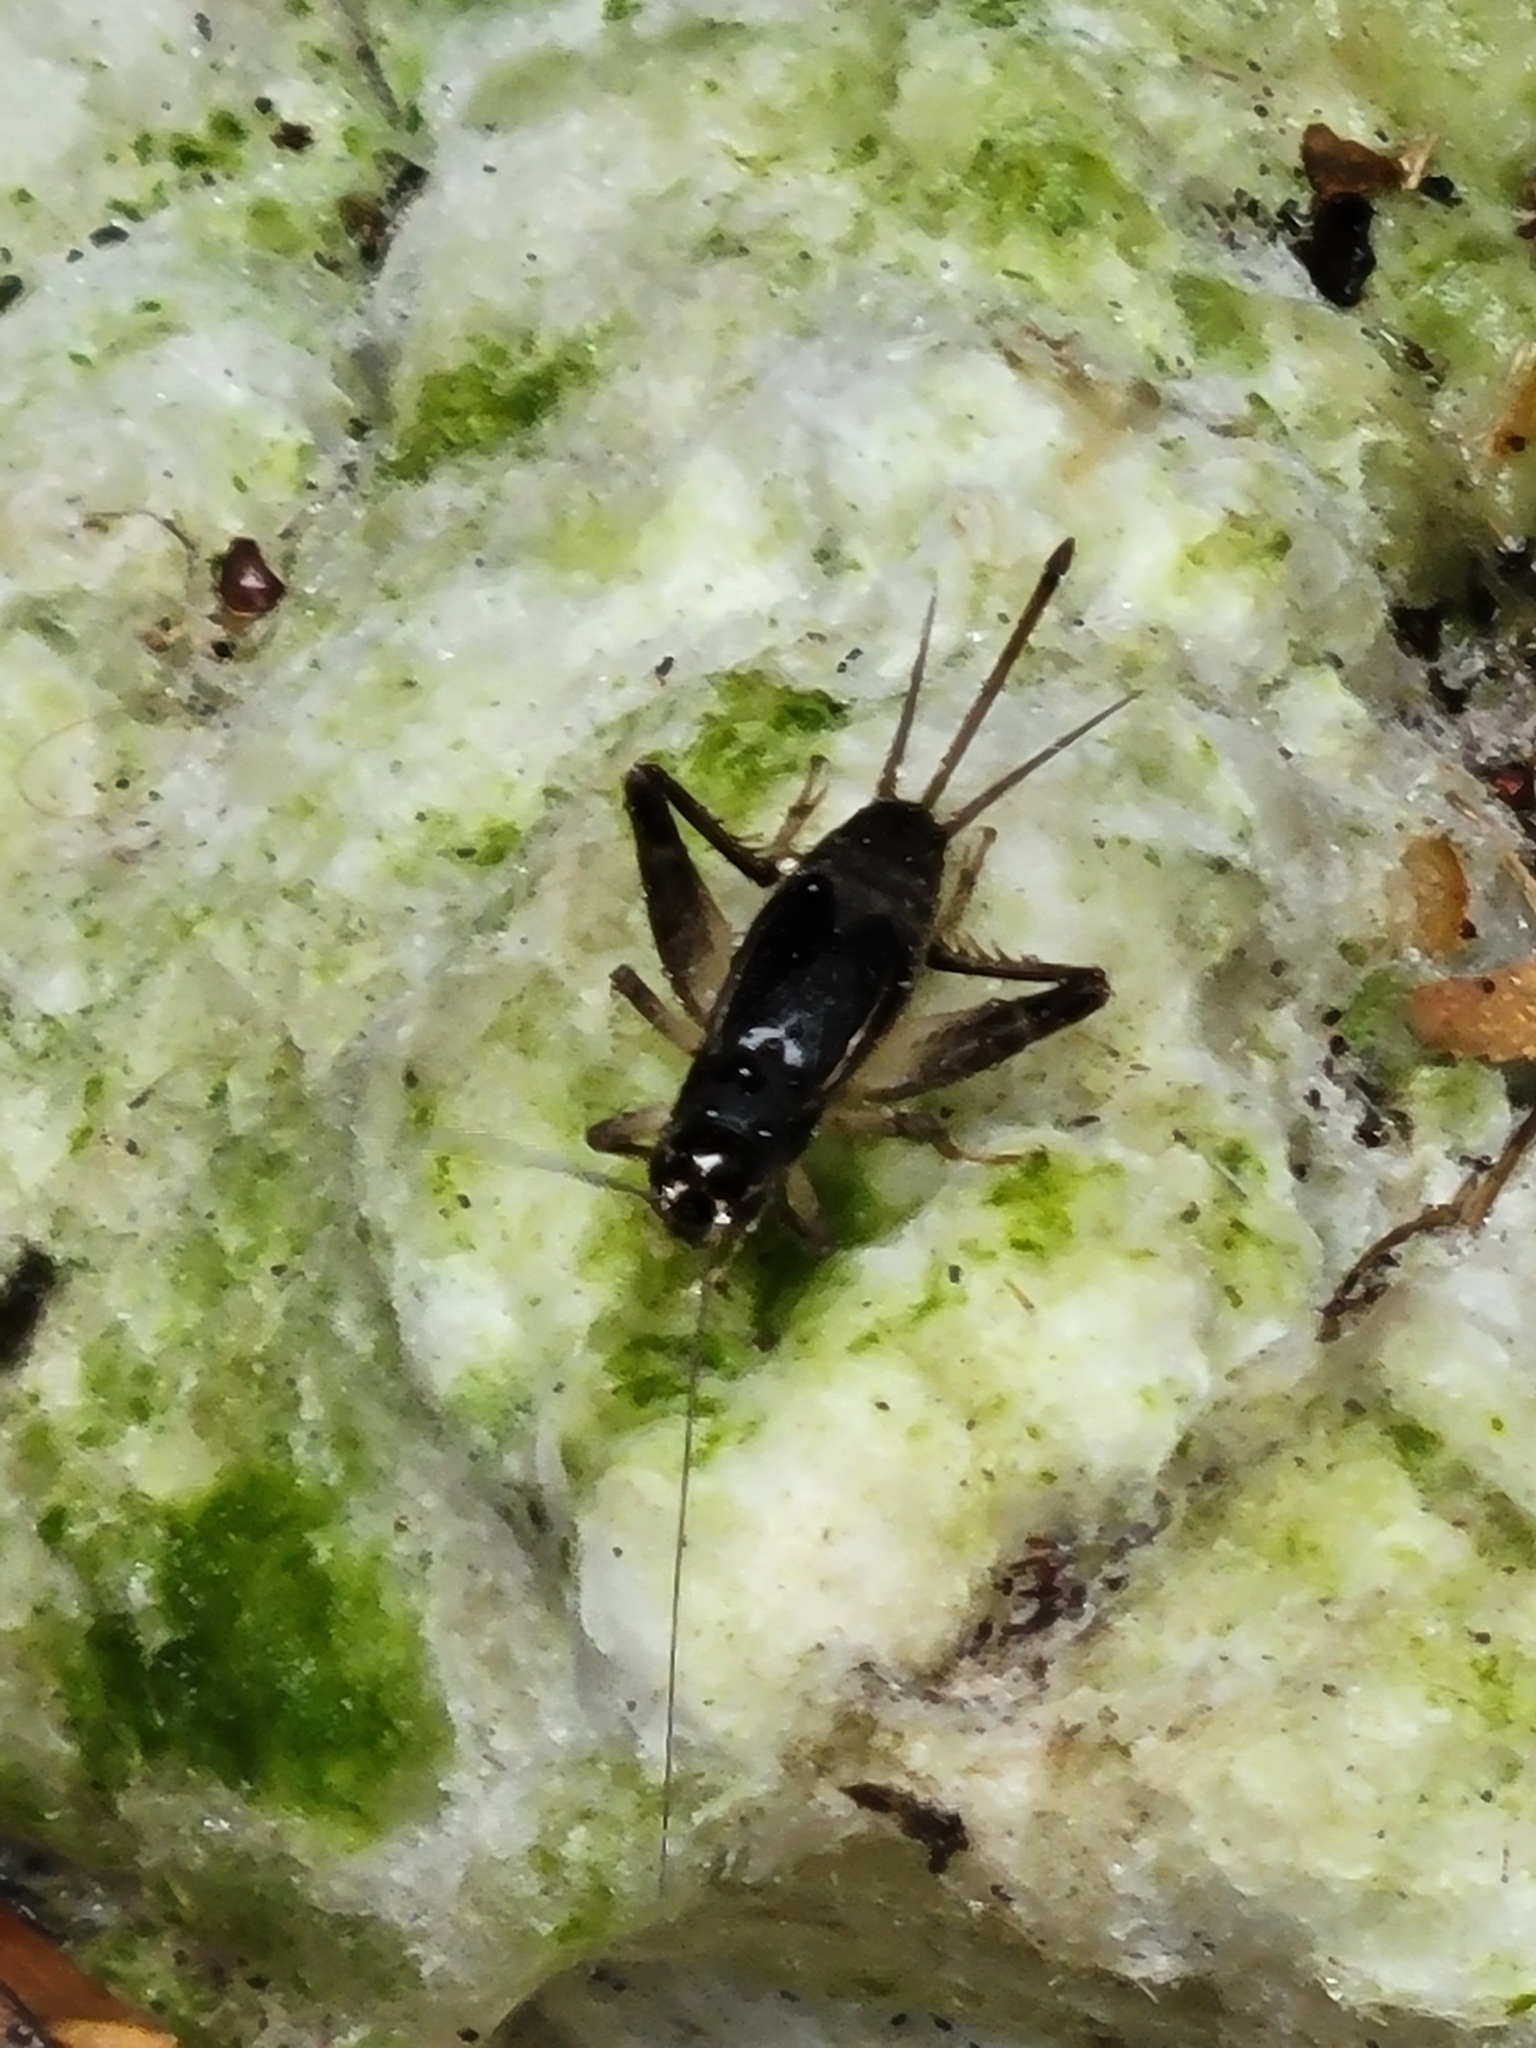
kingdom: Animalia
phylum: Arthropoda
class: Insecta
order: Orthoptera
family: Gryllidae
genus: Velarifictorus
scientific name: Velarifictorus micado
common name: Japanese burrowing cricket
